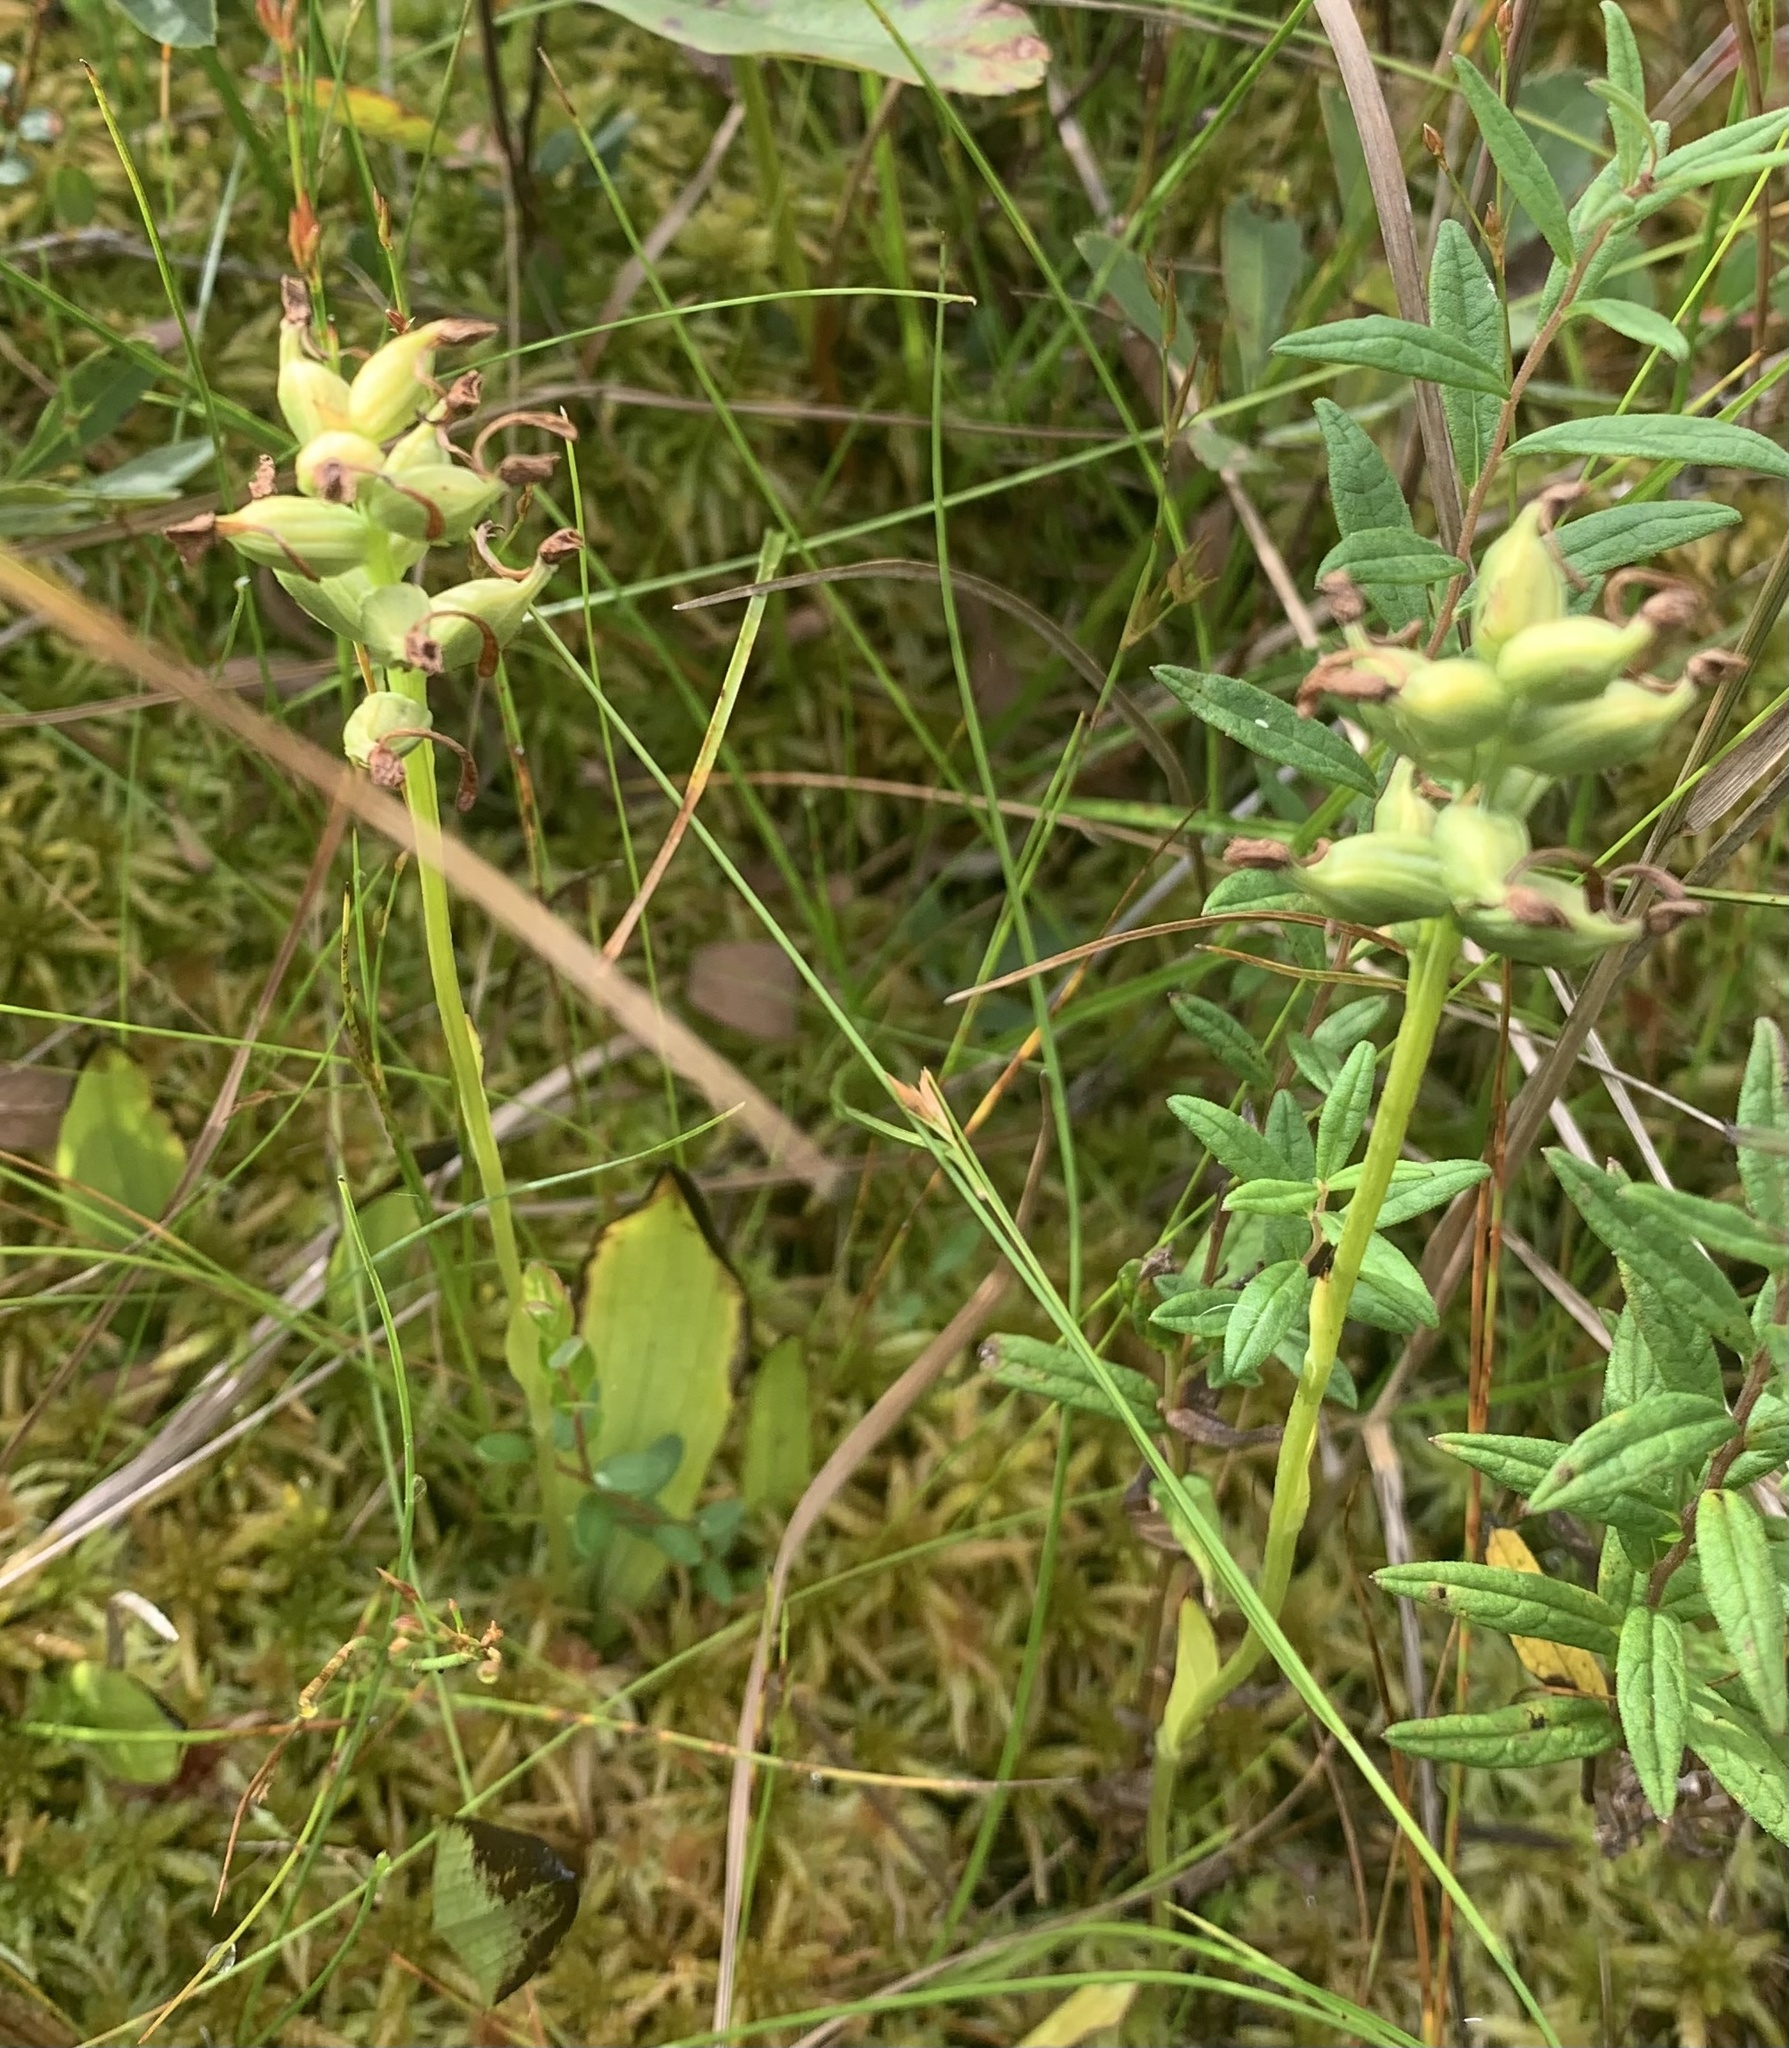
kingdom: Plantae
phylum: Tracheophyta
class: Liliopsida
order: Asparagales
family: Orchidaceae
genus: Platanthera
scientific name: Platanthera clavellata
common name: Club-spur orchid
